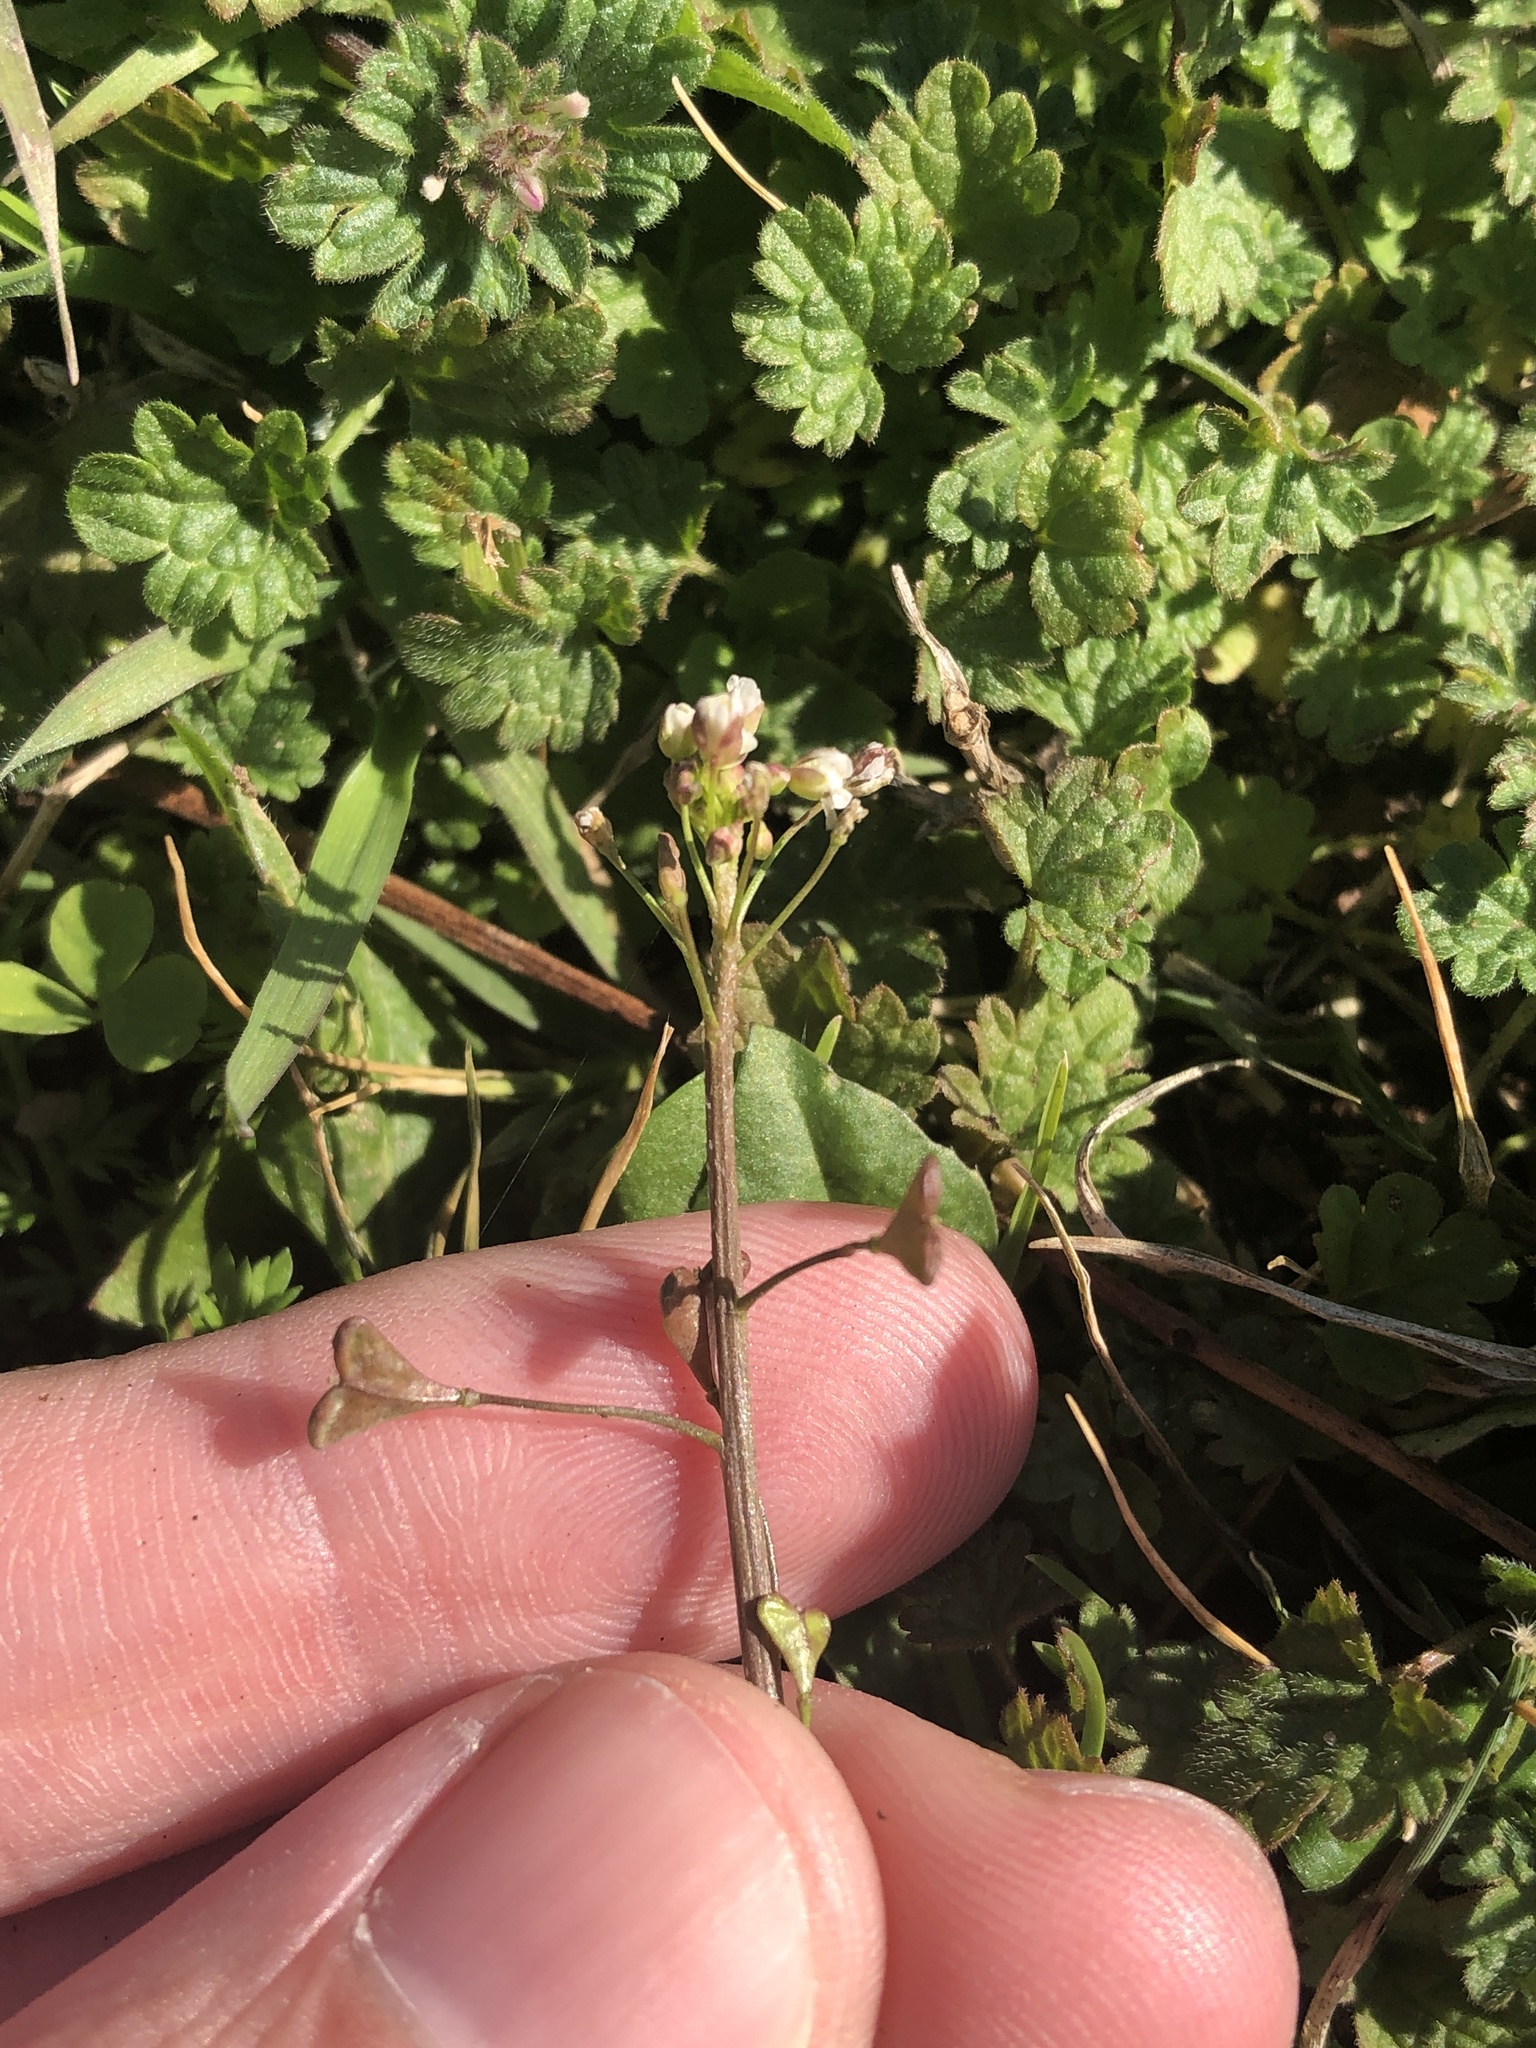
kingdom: Plantae
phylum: Tracheophyta
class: Magnoliopsida
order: Brassicales
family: Brassicaceae
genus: Capsella
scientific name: Capsella bursa-pastoris
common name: Shepherd's purse
